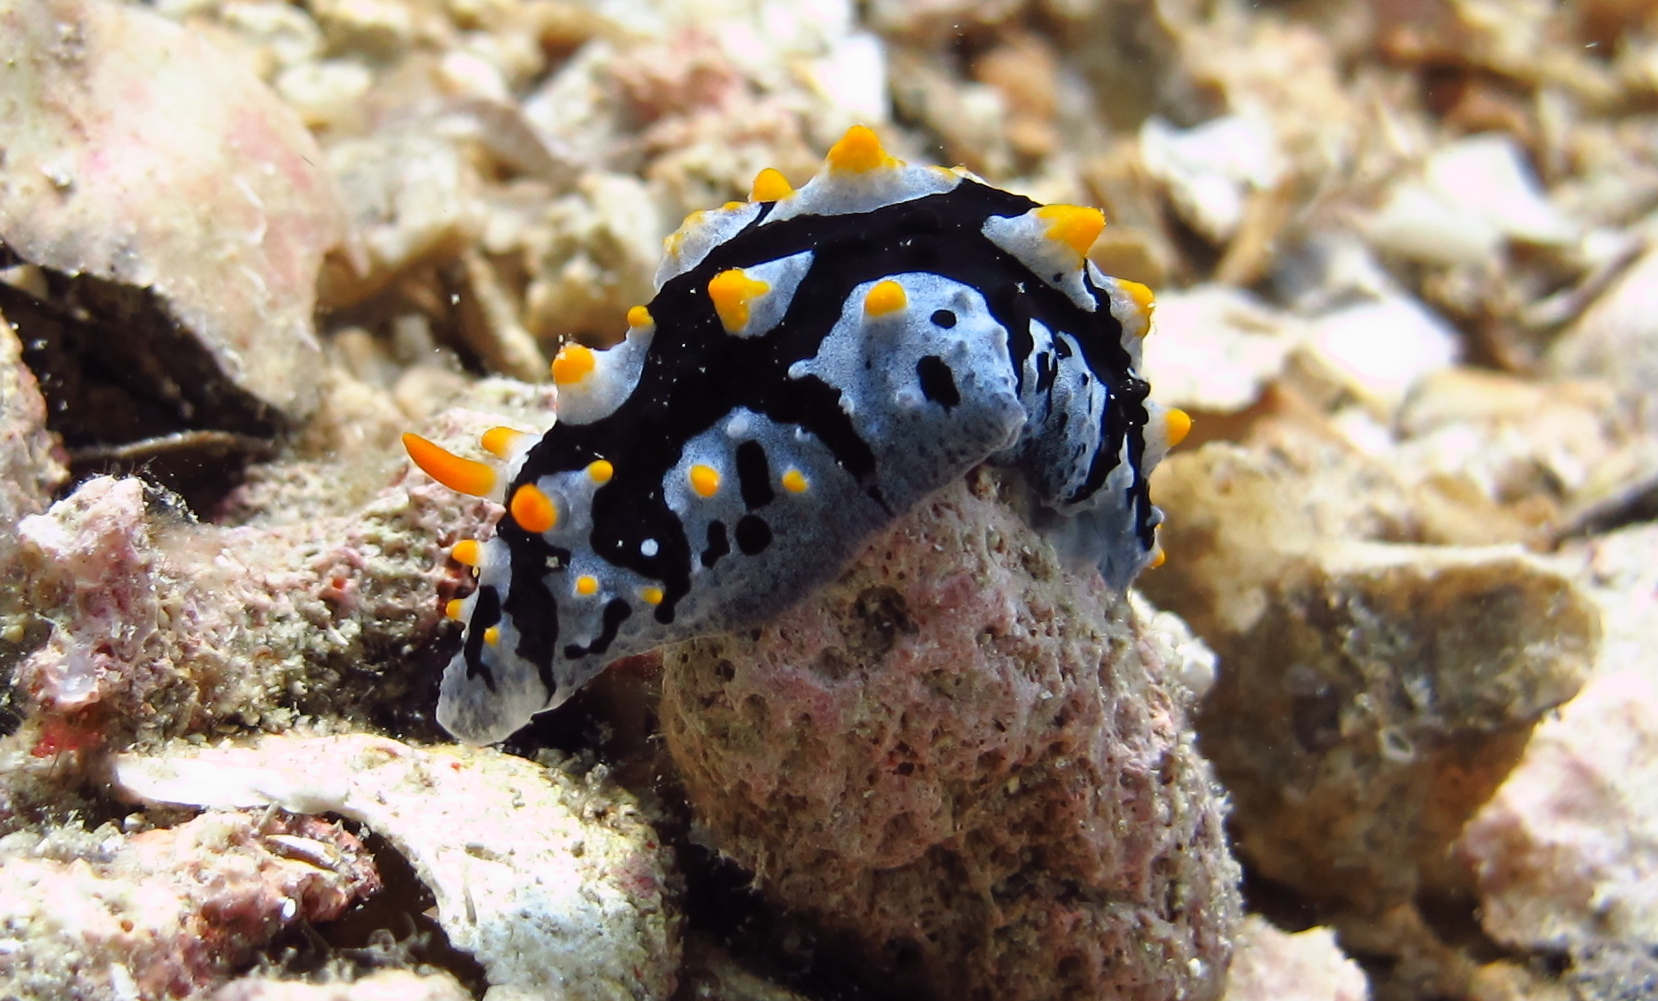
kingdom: Animalia
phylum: Mollusca
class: Gastropoda
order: Nudibranchia
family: Phyllidiidae
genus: Phyllidia
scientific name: Phyllidia picta
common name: Black-rayed phyllidia
